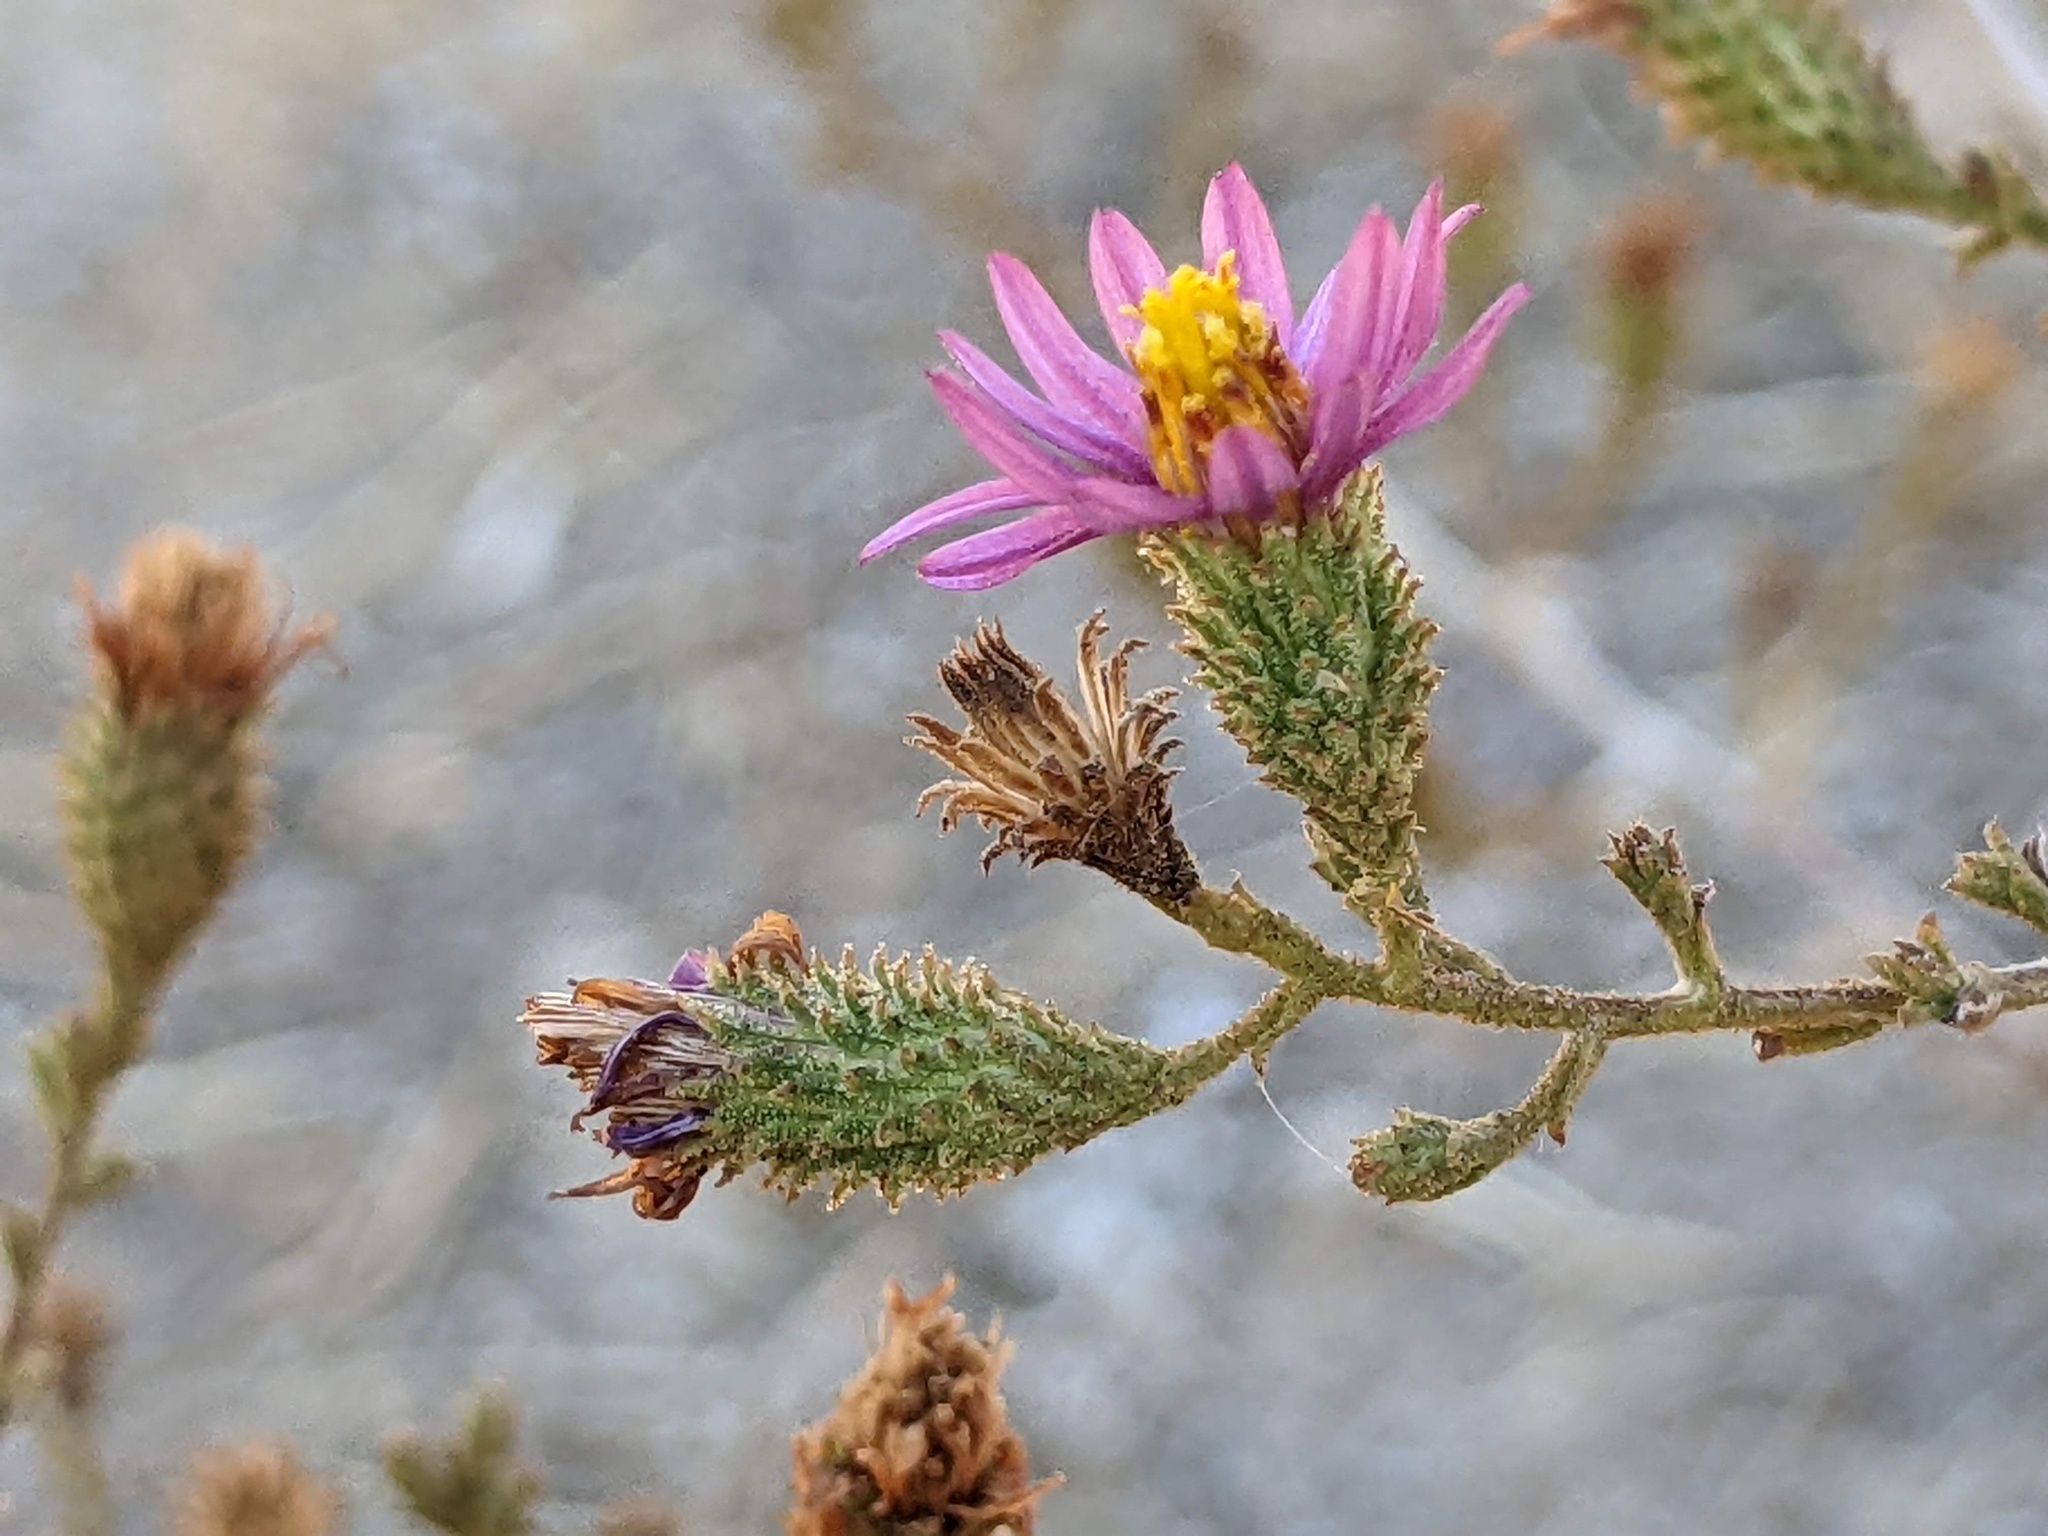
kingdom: Plantae
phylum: Tracheophyta
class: Magnoliopsida
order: Asterales
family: Asteraceae
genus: Corethrogyne
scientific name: Corethrogyne filaginifolia
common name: Sand-aster
